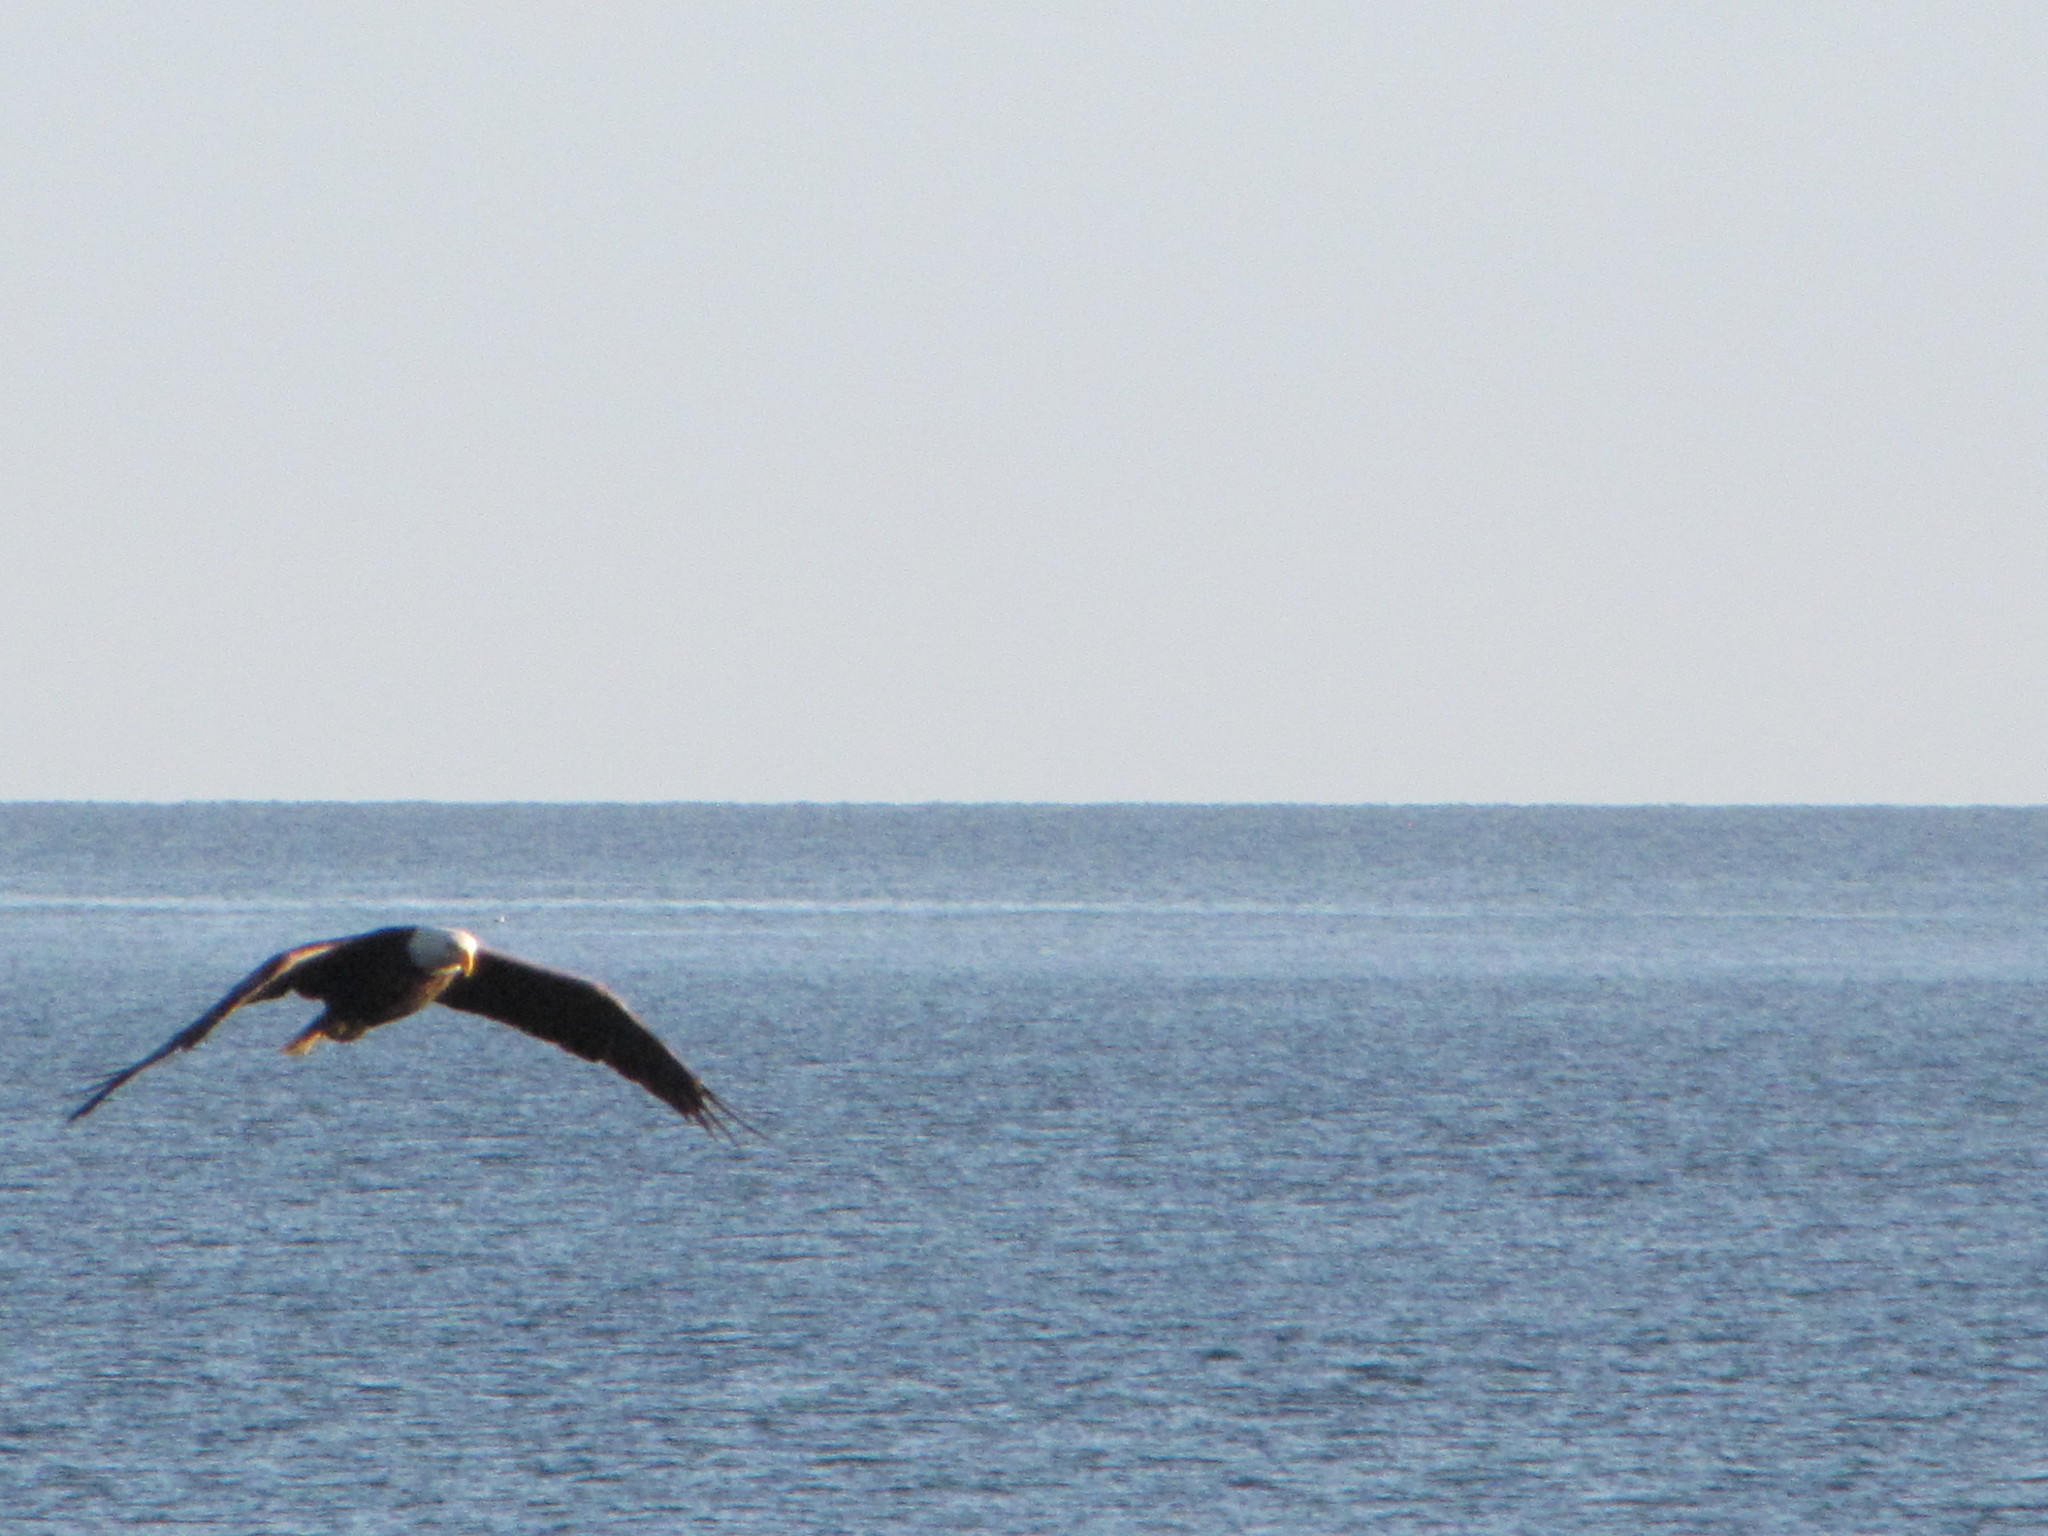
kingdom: Animalia
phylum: Chordata
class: Aves
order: Accipitriformes
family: Accipitridae
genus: Haliaeetus
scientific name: Haliaeetus leucocephalus
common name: Bald eagle
